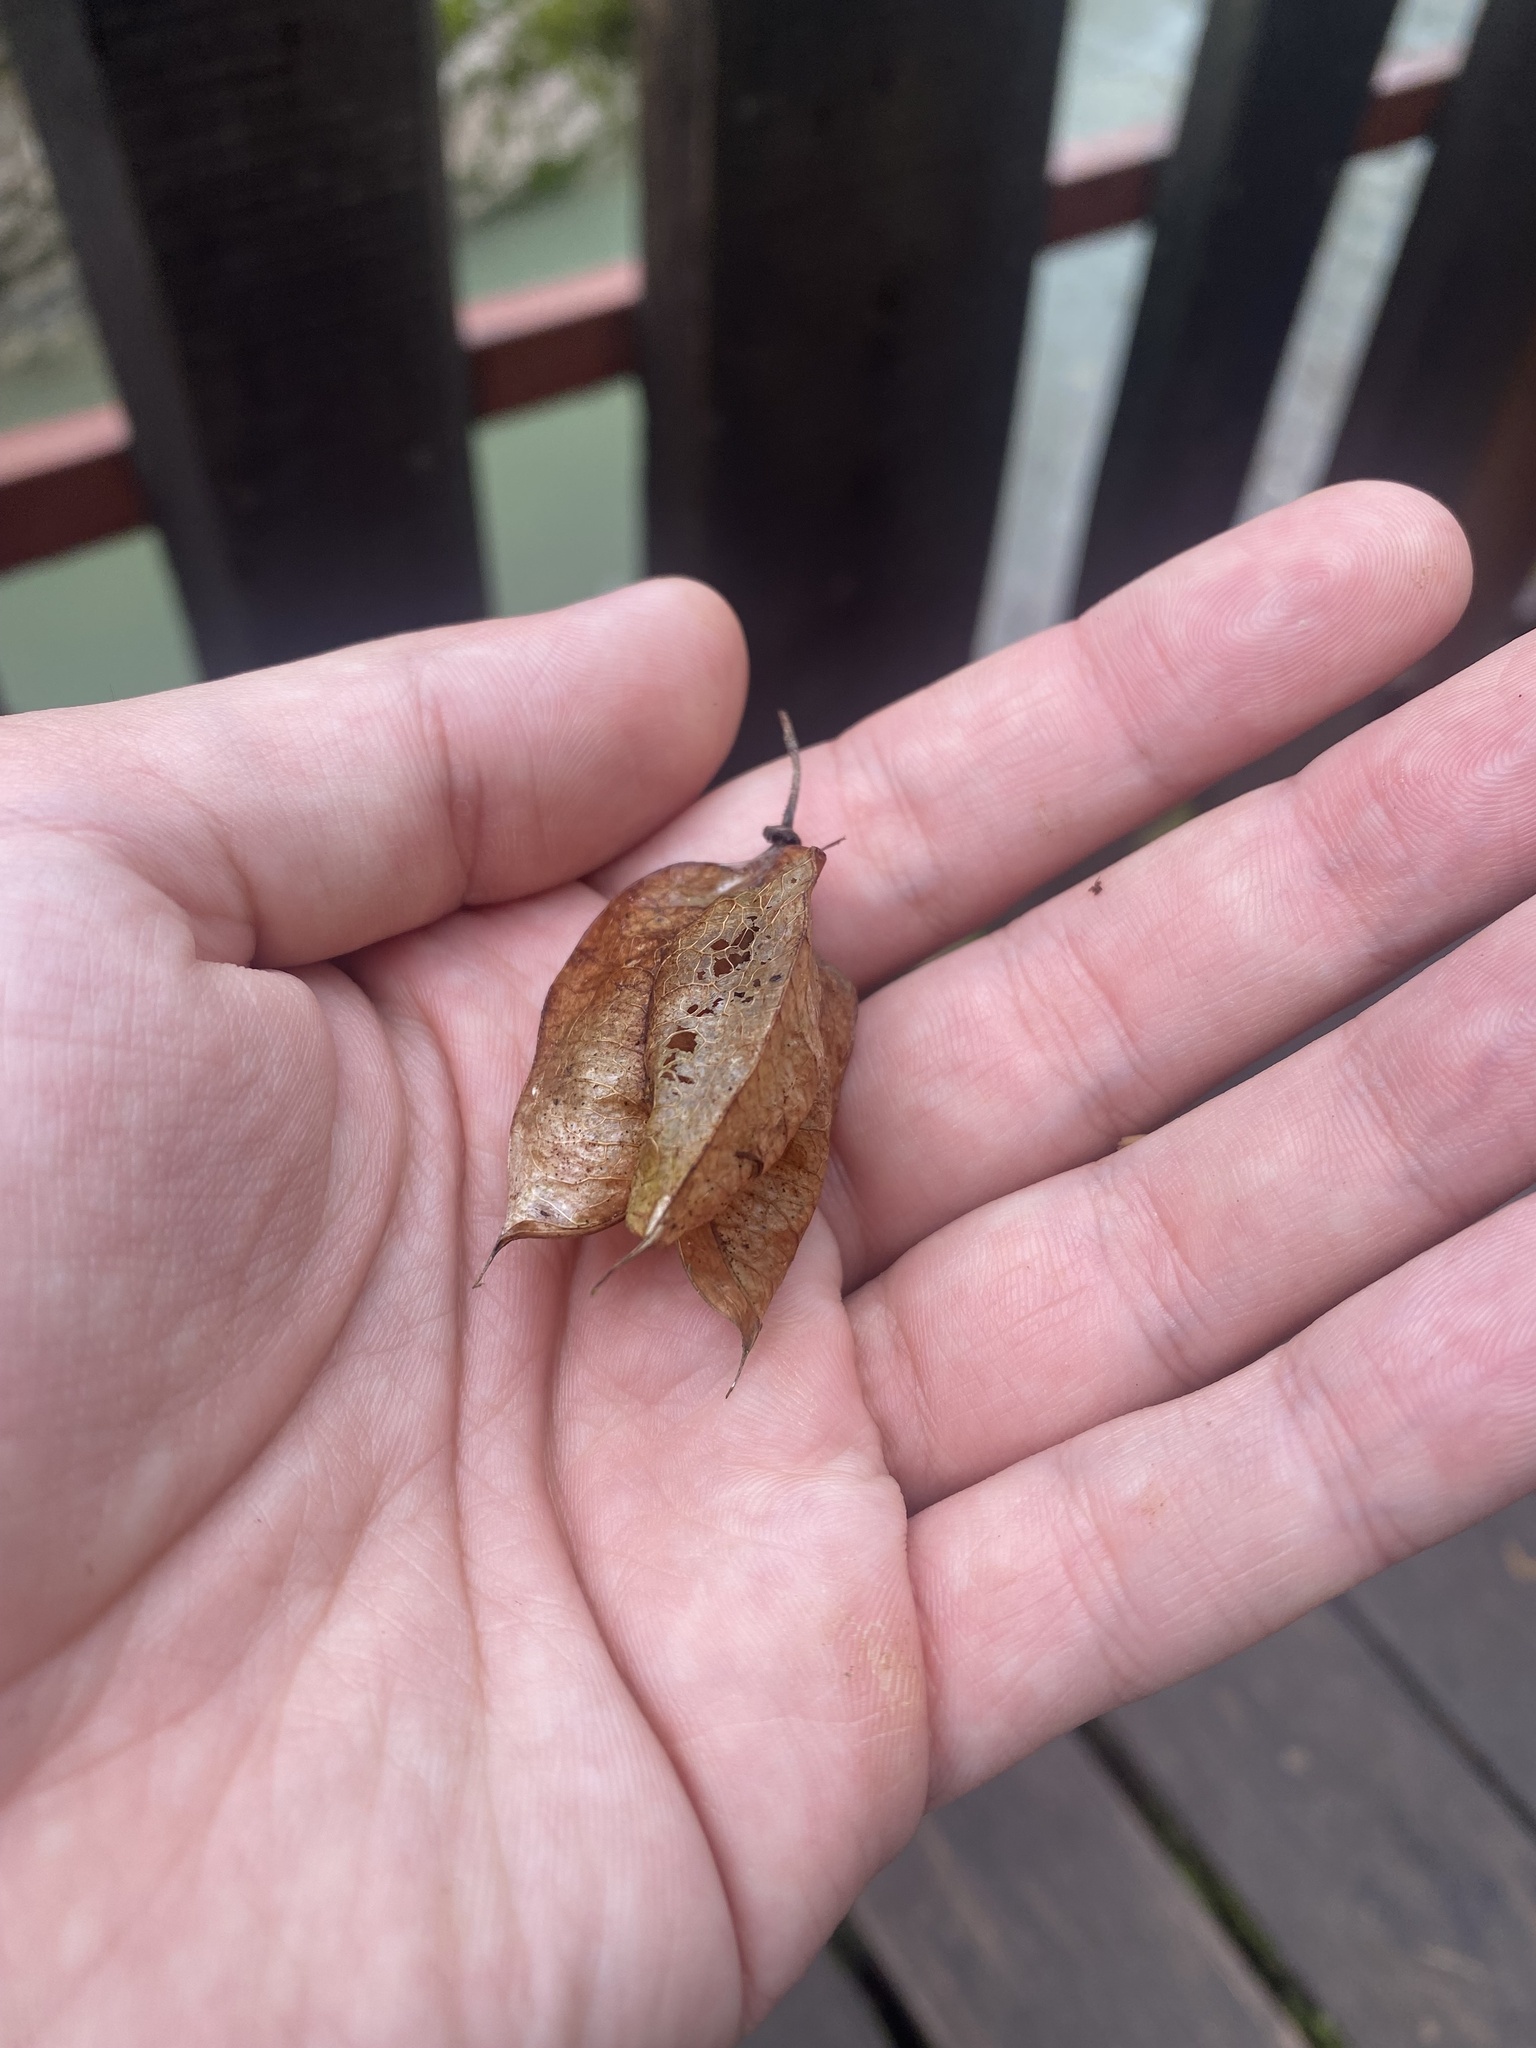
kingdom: Plantae
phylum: Tracheophyta
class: Magnoliopsida
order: Crossosomatales
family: Staphyleaceae
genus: Staphylea
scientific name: Staphylea colchica
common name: Caucasian bladdernut
